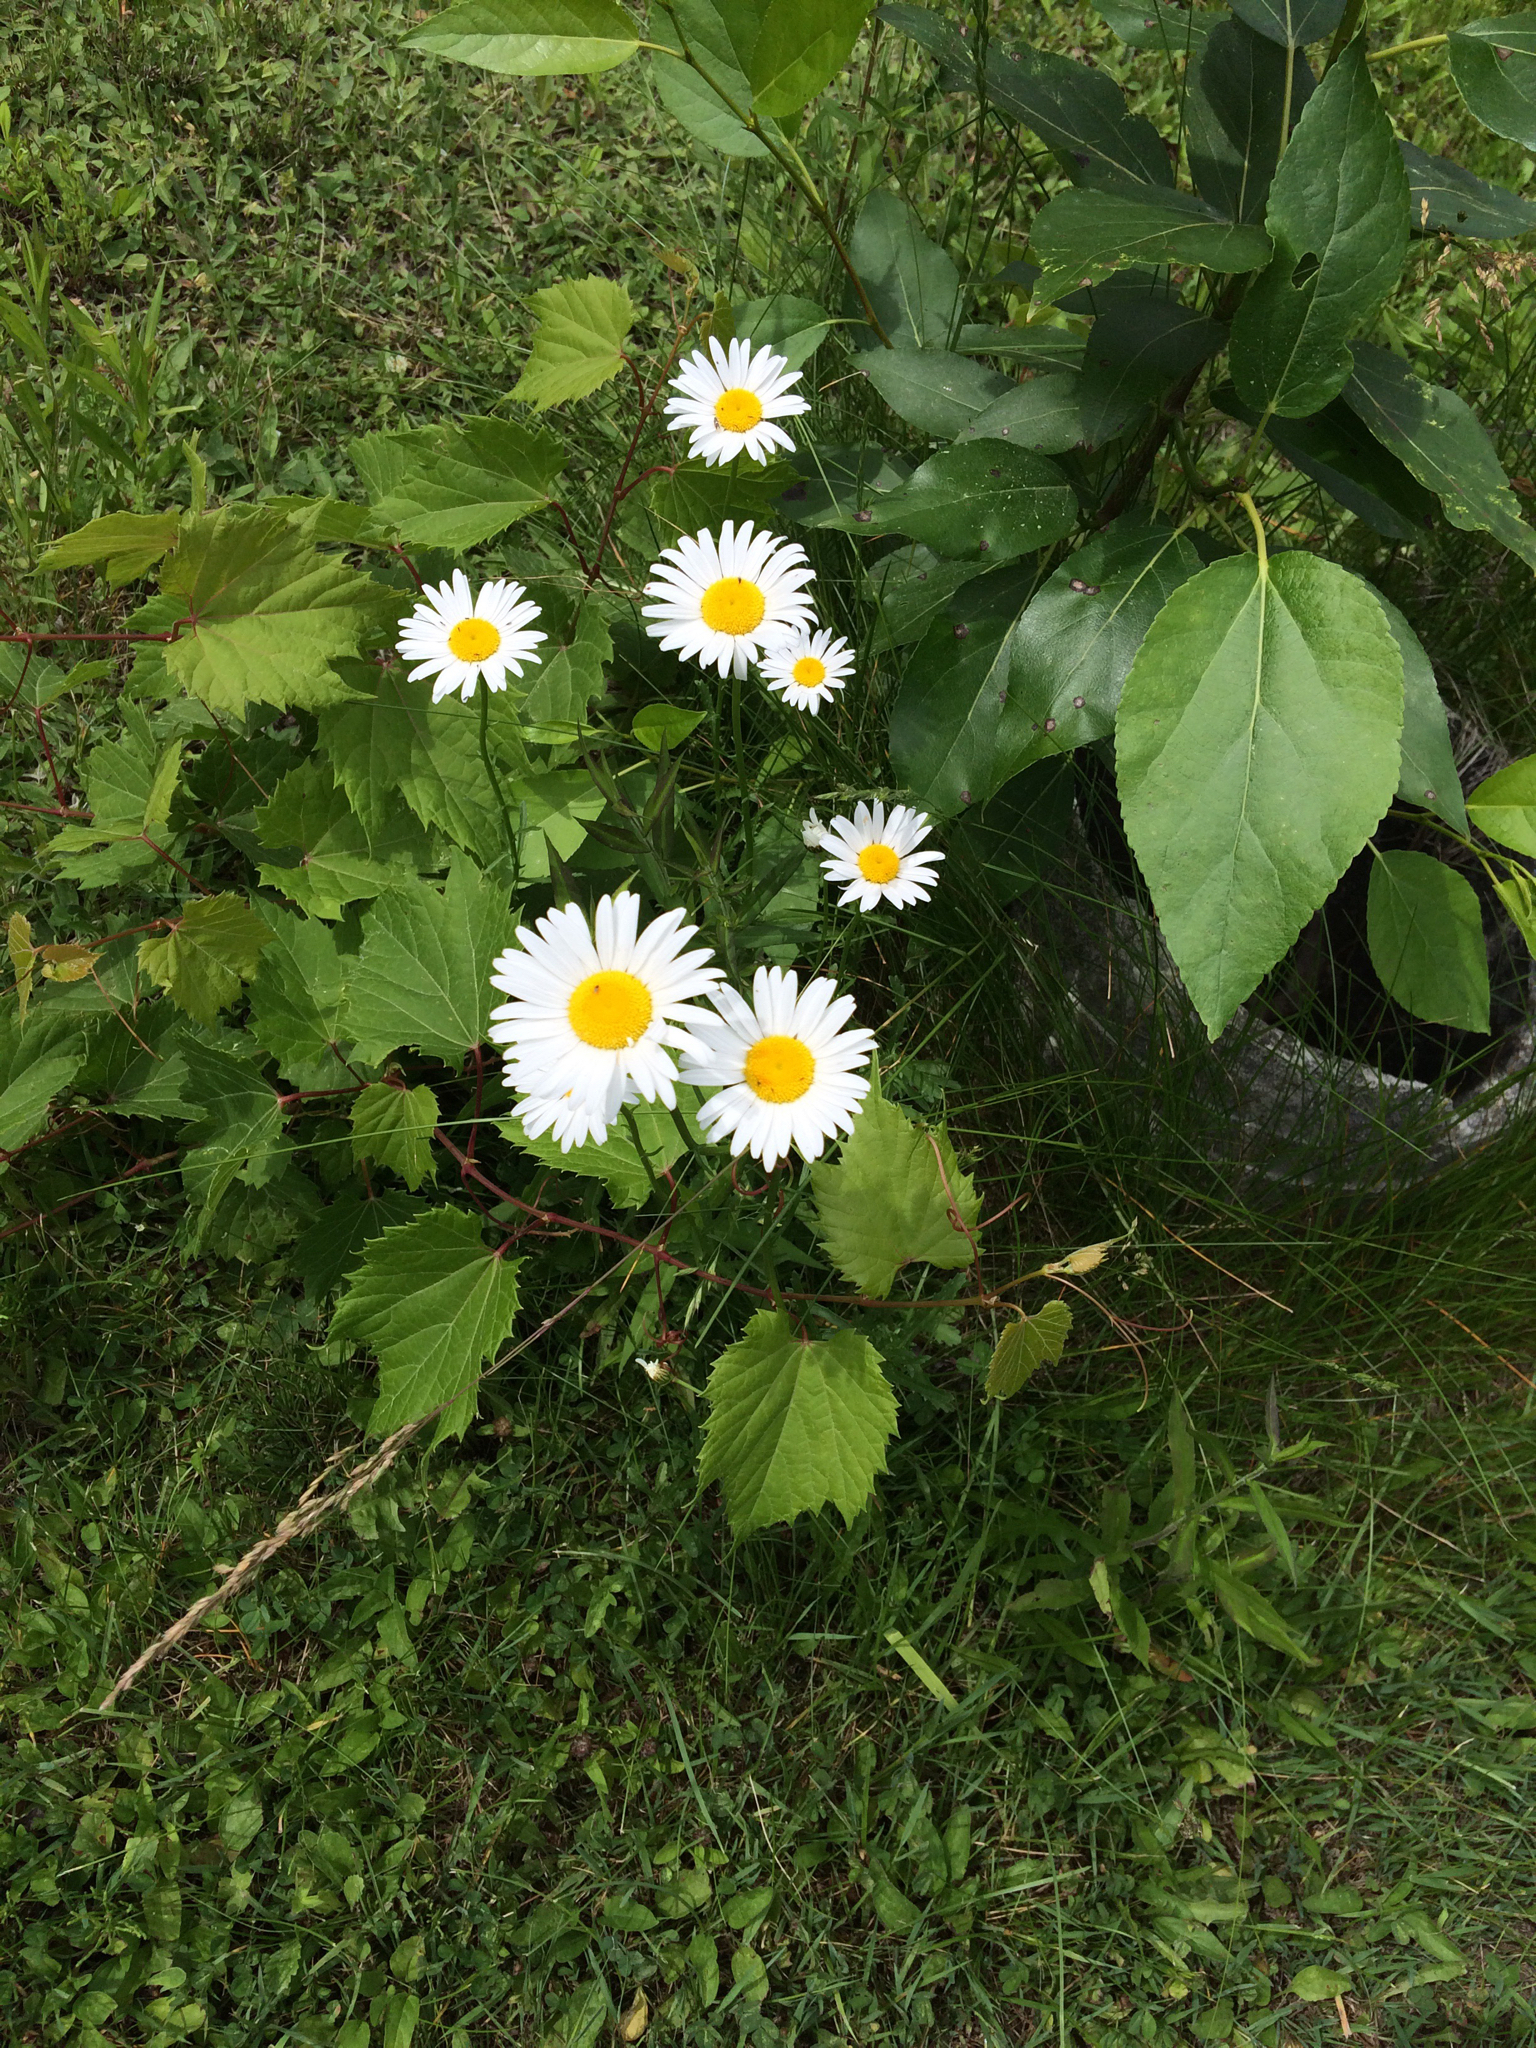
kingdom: Plantae
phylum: Tracheophyta
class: Magnoliopsida
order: Asterales
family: Asteraceae
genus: Leucanthemum
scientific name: Leucanthemum vulgare
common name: Oxeye daisy
